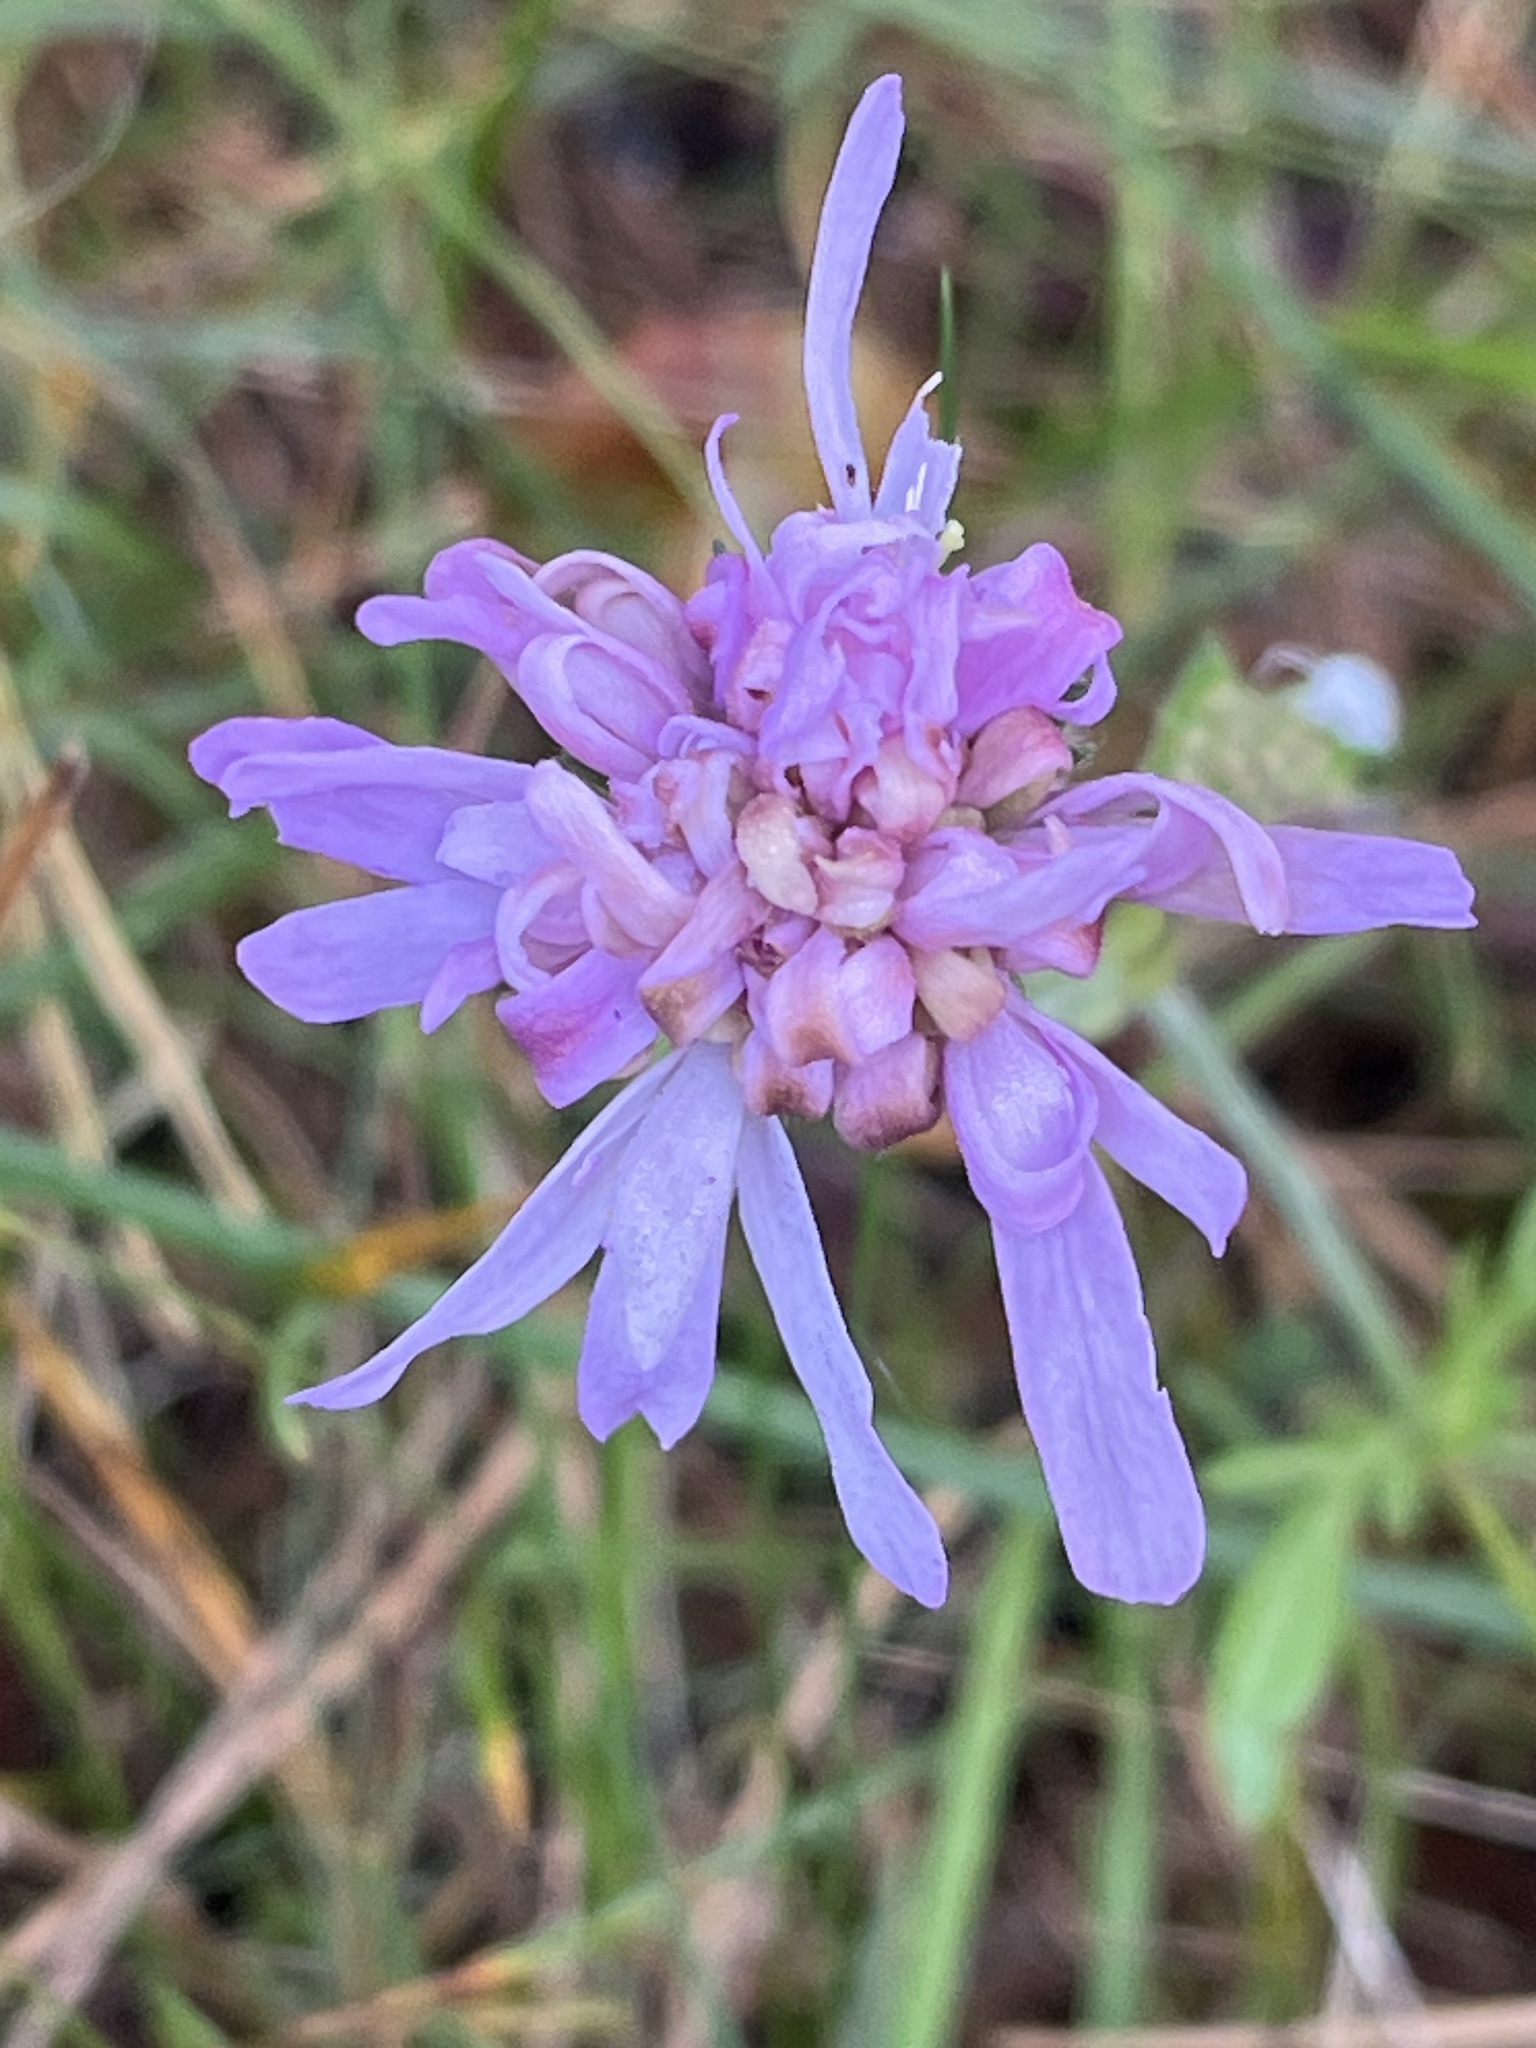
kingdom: Plantae
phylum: Tracheophyta
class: Magnoliopsida
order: Dipsacales
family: Caprifoliaceae
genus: Knautia
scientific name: Knautia arvensis
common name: Field scabiosa
